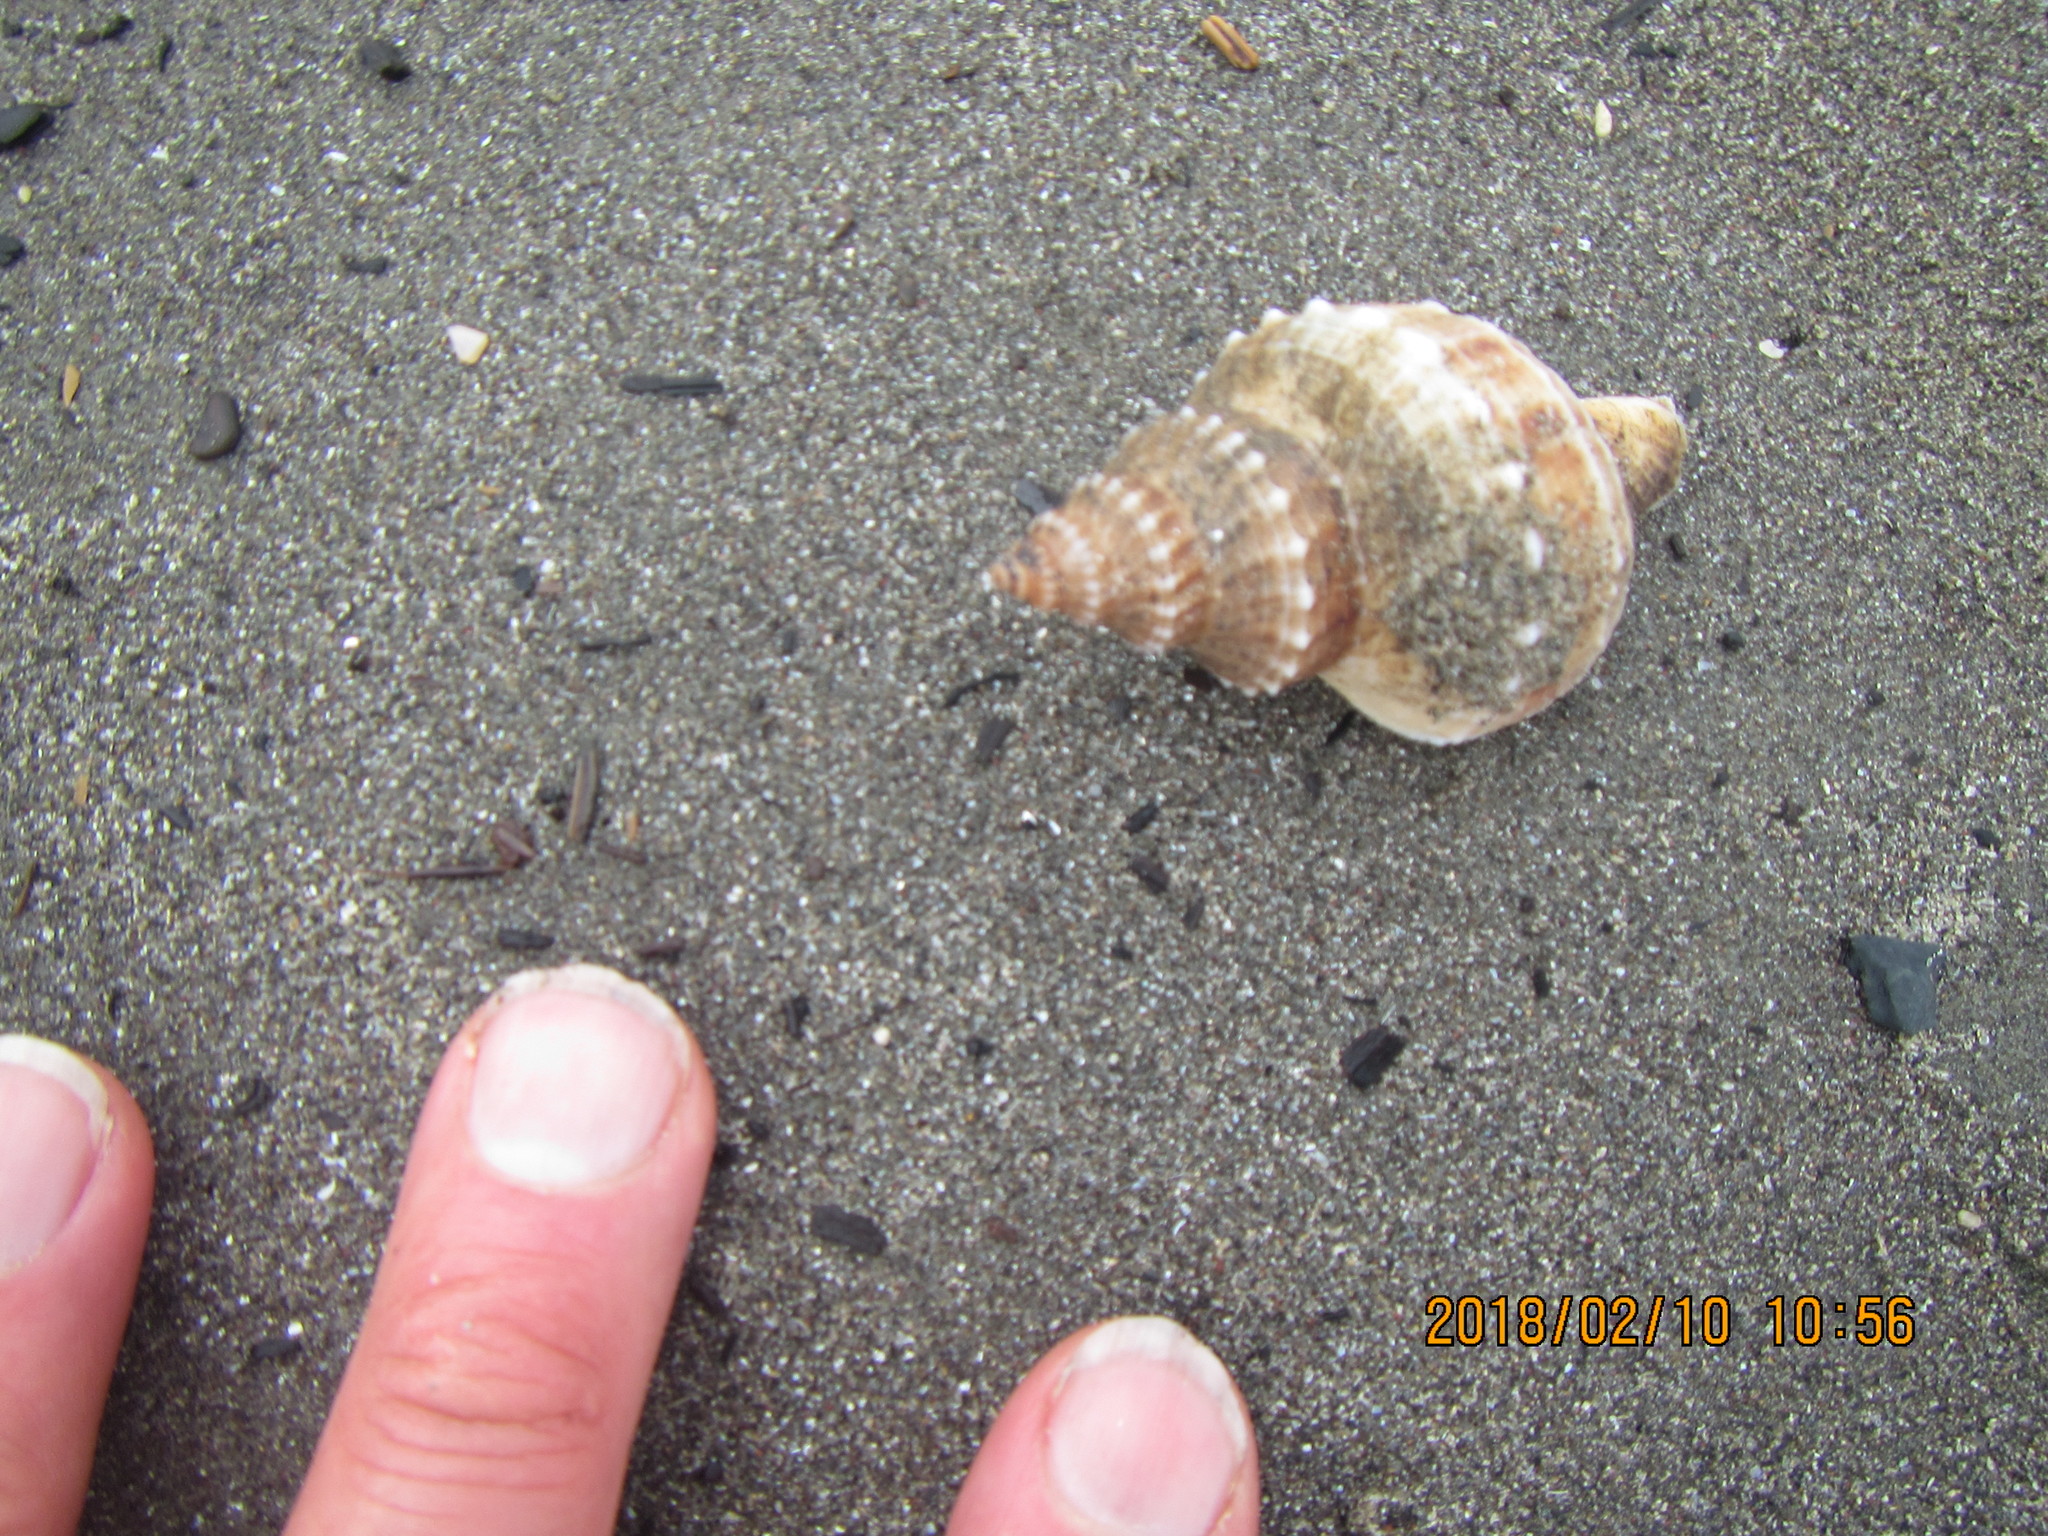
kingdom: Animalia
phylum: Mollusca
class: Gastropoda
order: Neogastropoda
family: Prosiphonidae
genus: Austrofusus
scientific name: Austrofusus glans
